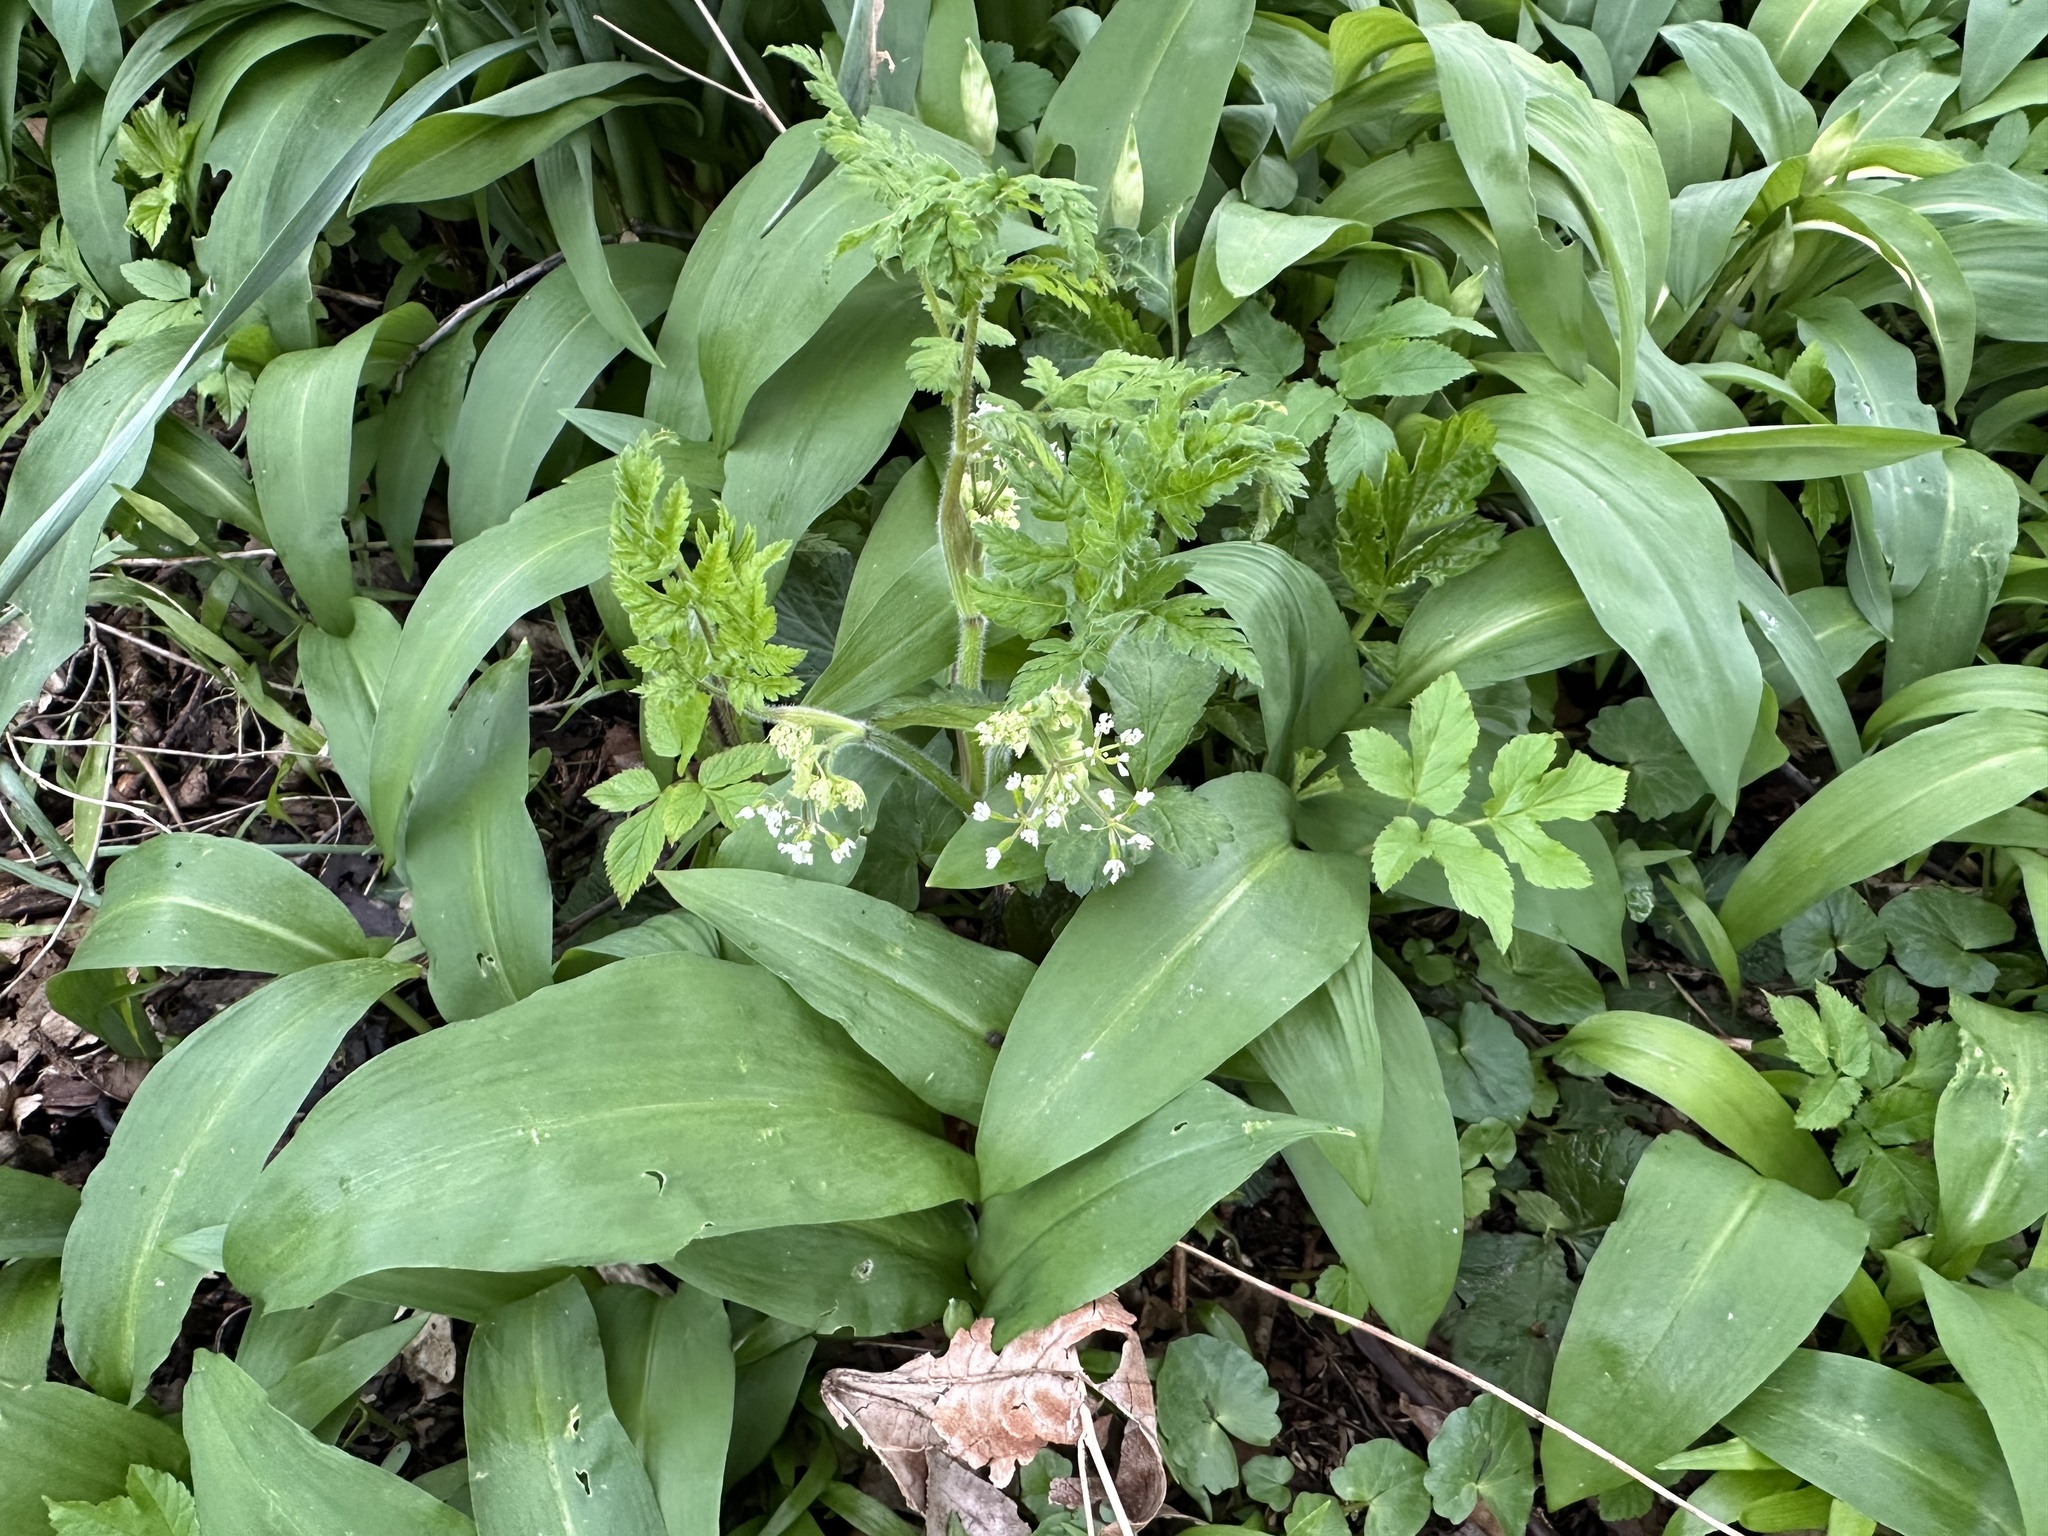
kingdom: Plantae
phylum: Tracheophyta
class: Liliopsida
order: Asparagales
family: Amaryllidaceae
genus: Allium
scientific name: Allium ursinum
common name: Ramsons
